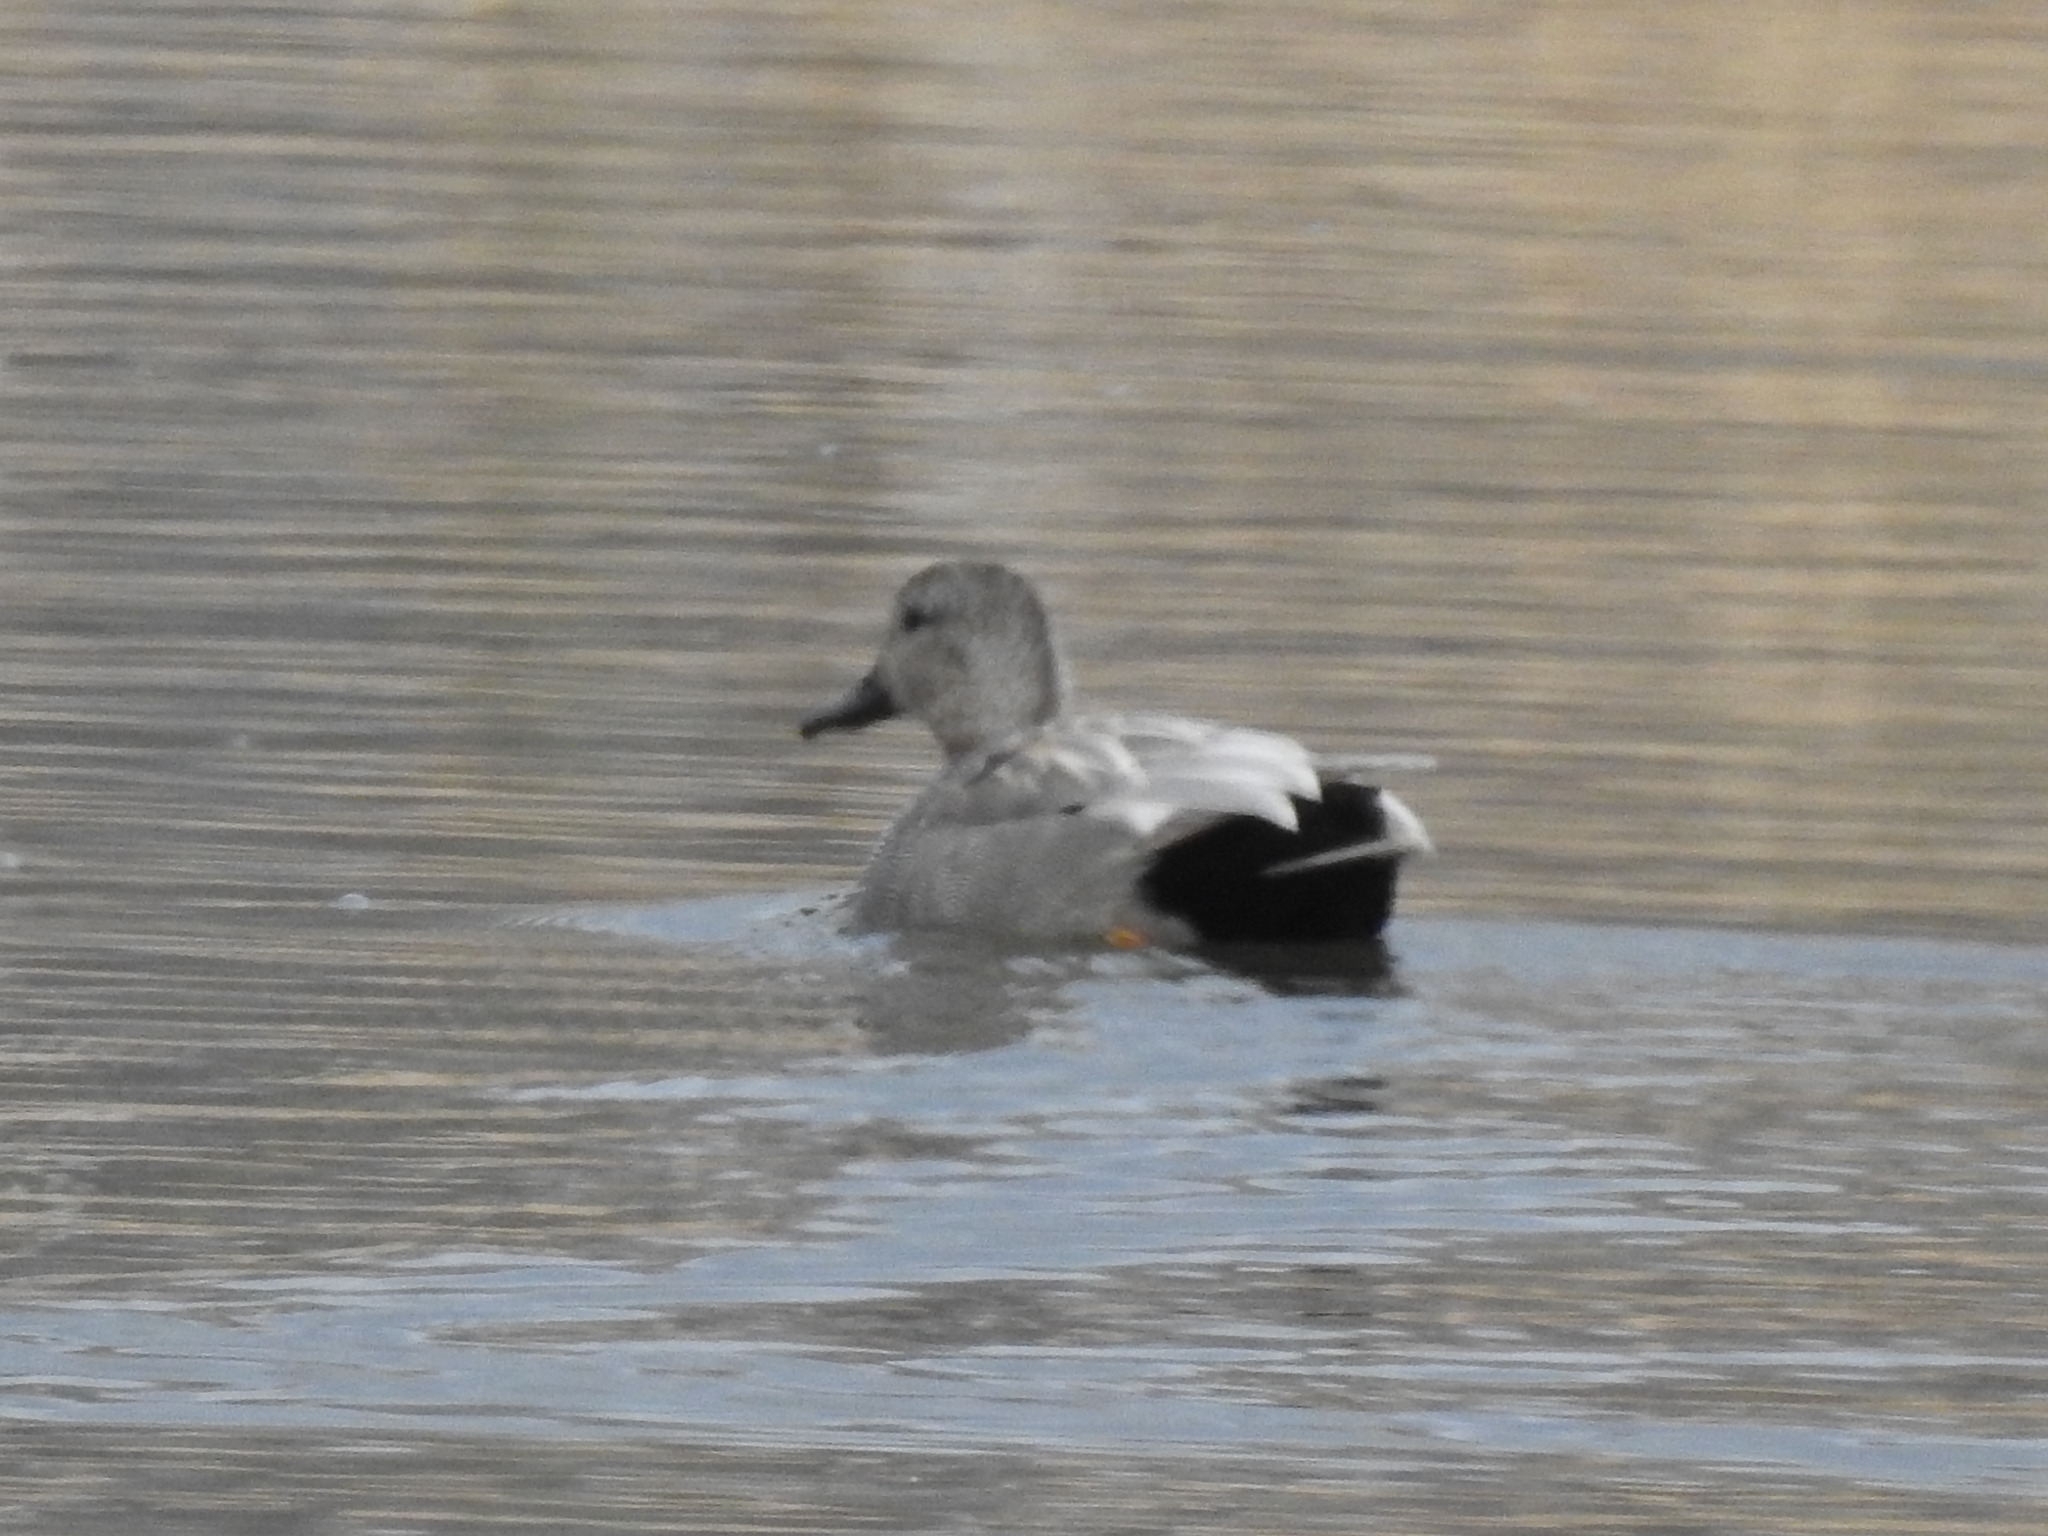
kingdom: Animalia
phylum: Chordata
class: Aves
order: Anseriformes
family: Anatidae
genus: Mareca
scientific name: Mareca strepera
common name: Gadwall
